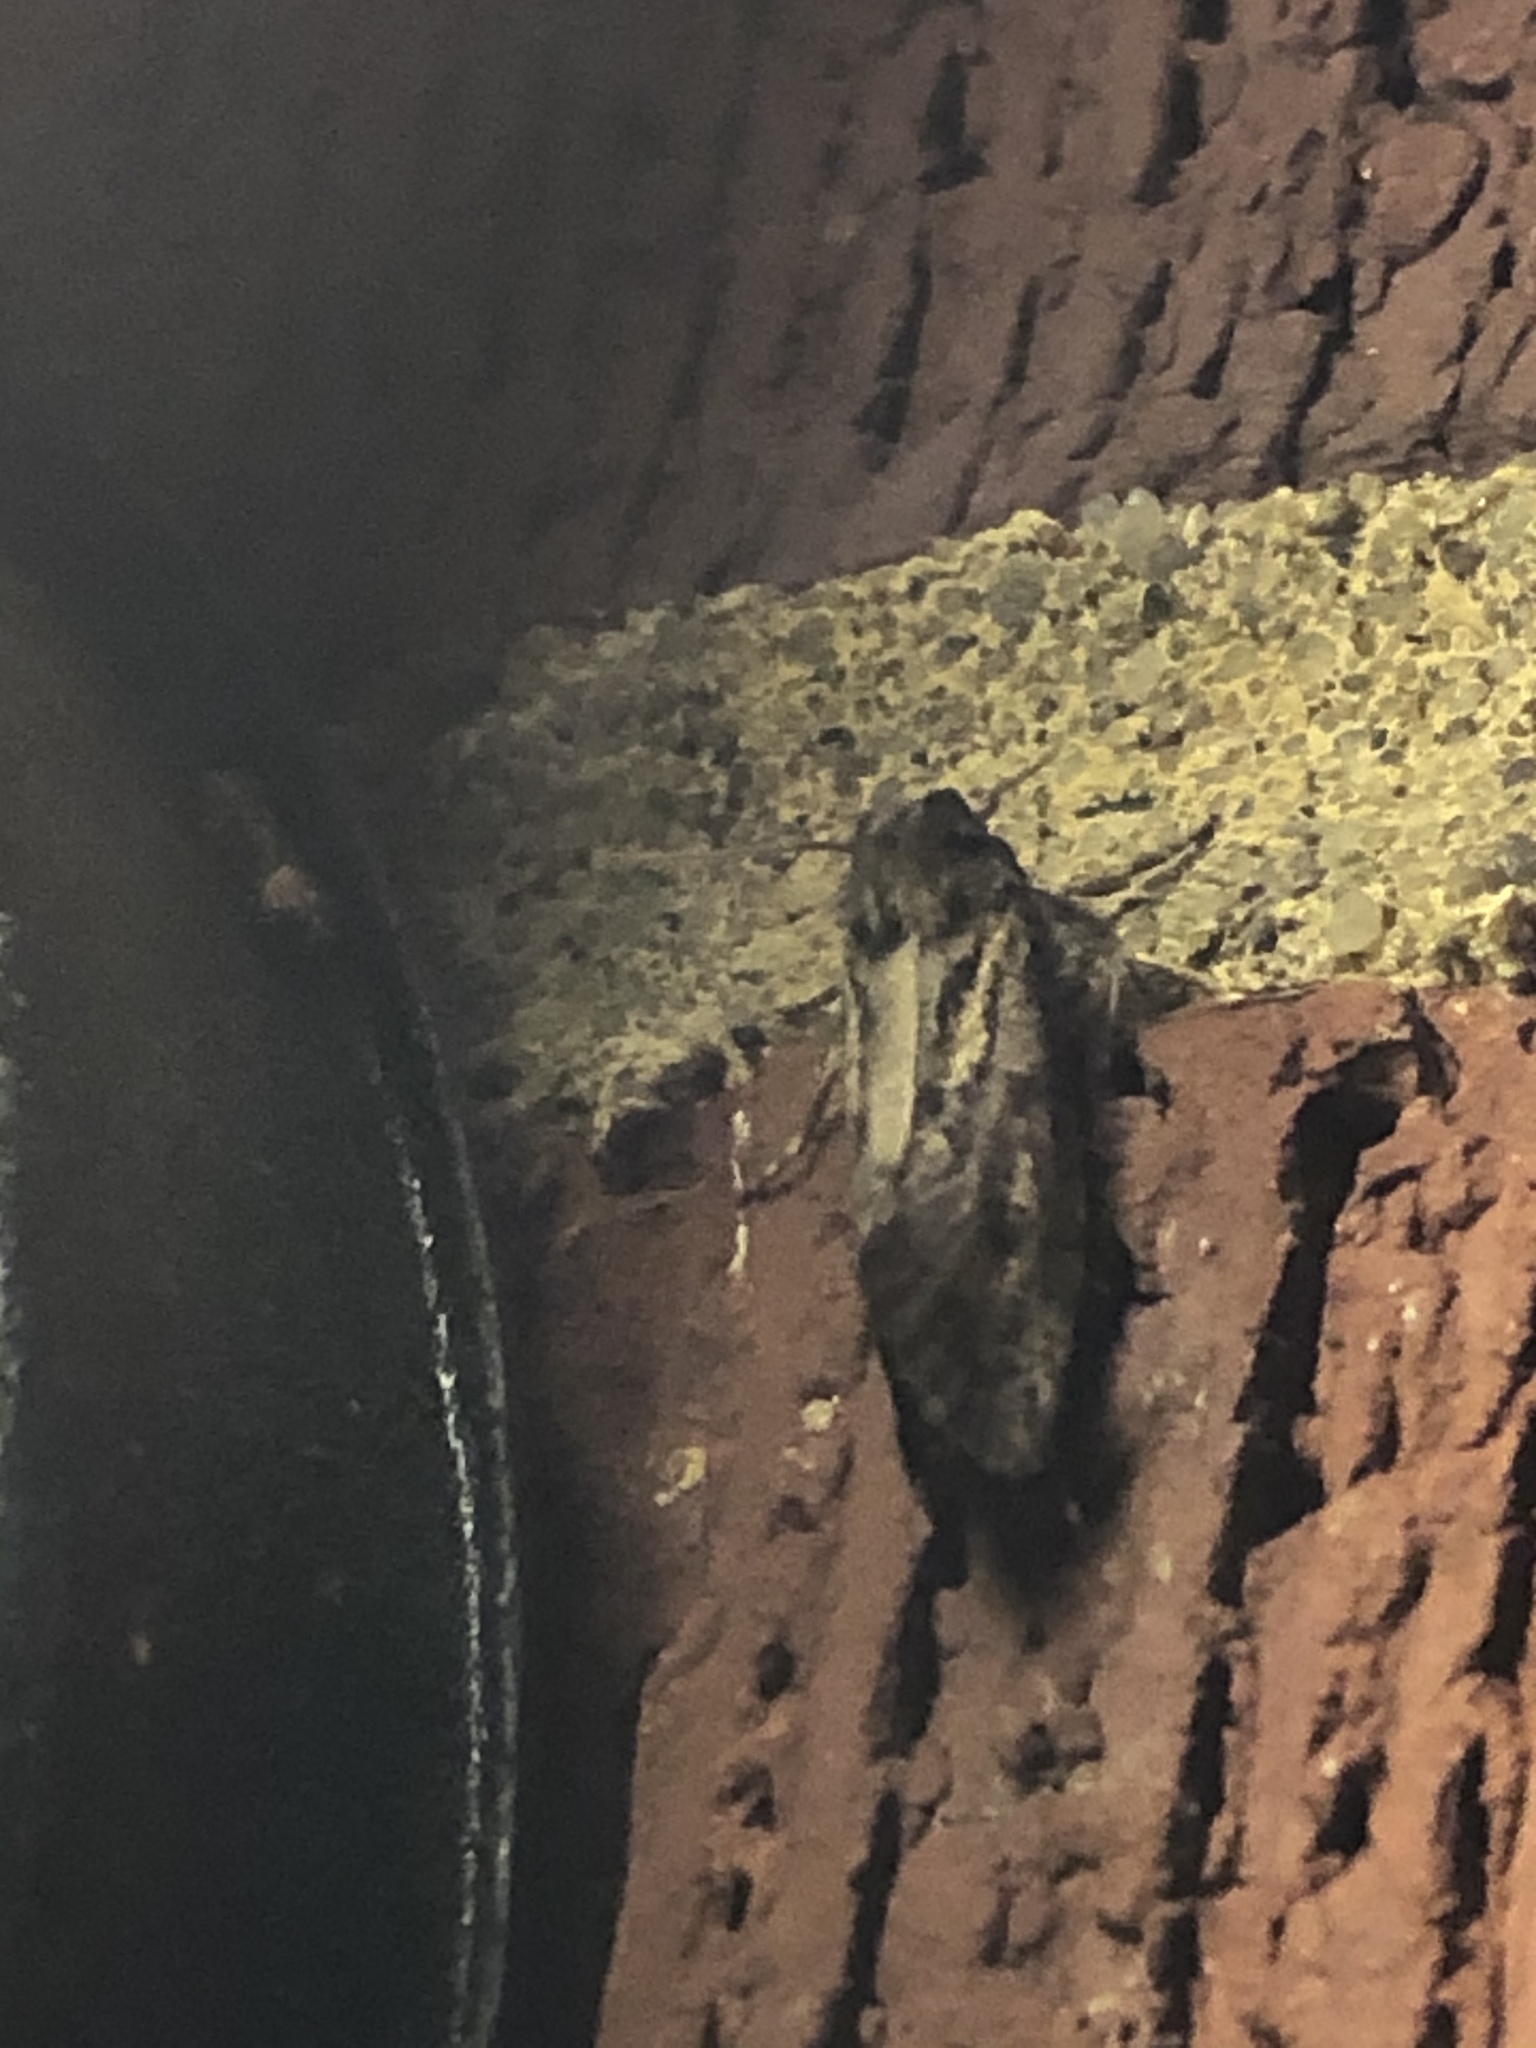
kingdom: Animalia
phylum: Arthropoda
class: Insecta
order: Lepidoptera
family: Tineidae
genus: Acrolophus
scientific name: Acrolophus popeanella
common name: Clemens' grass tubeworm moth
